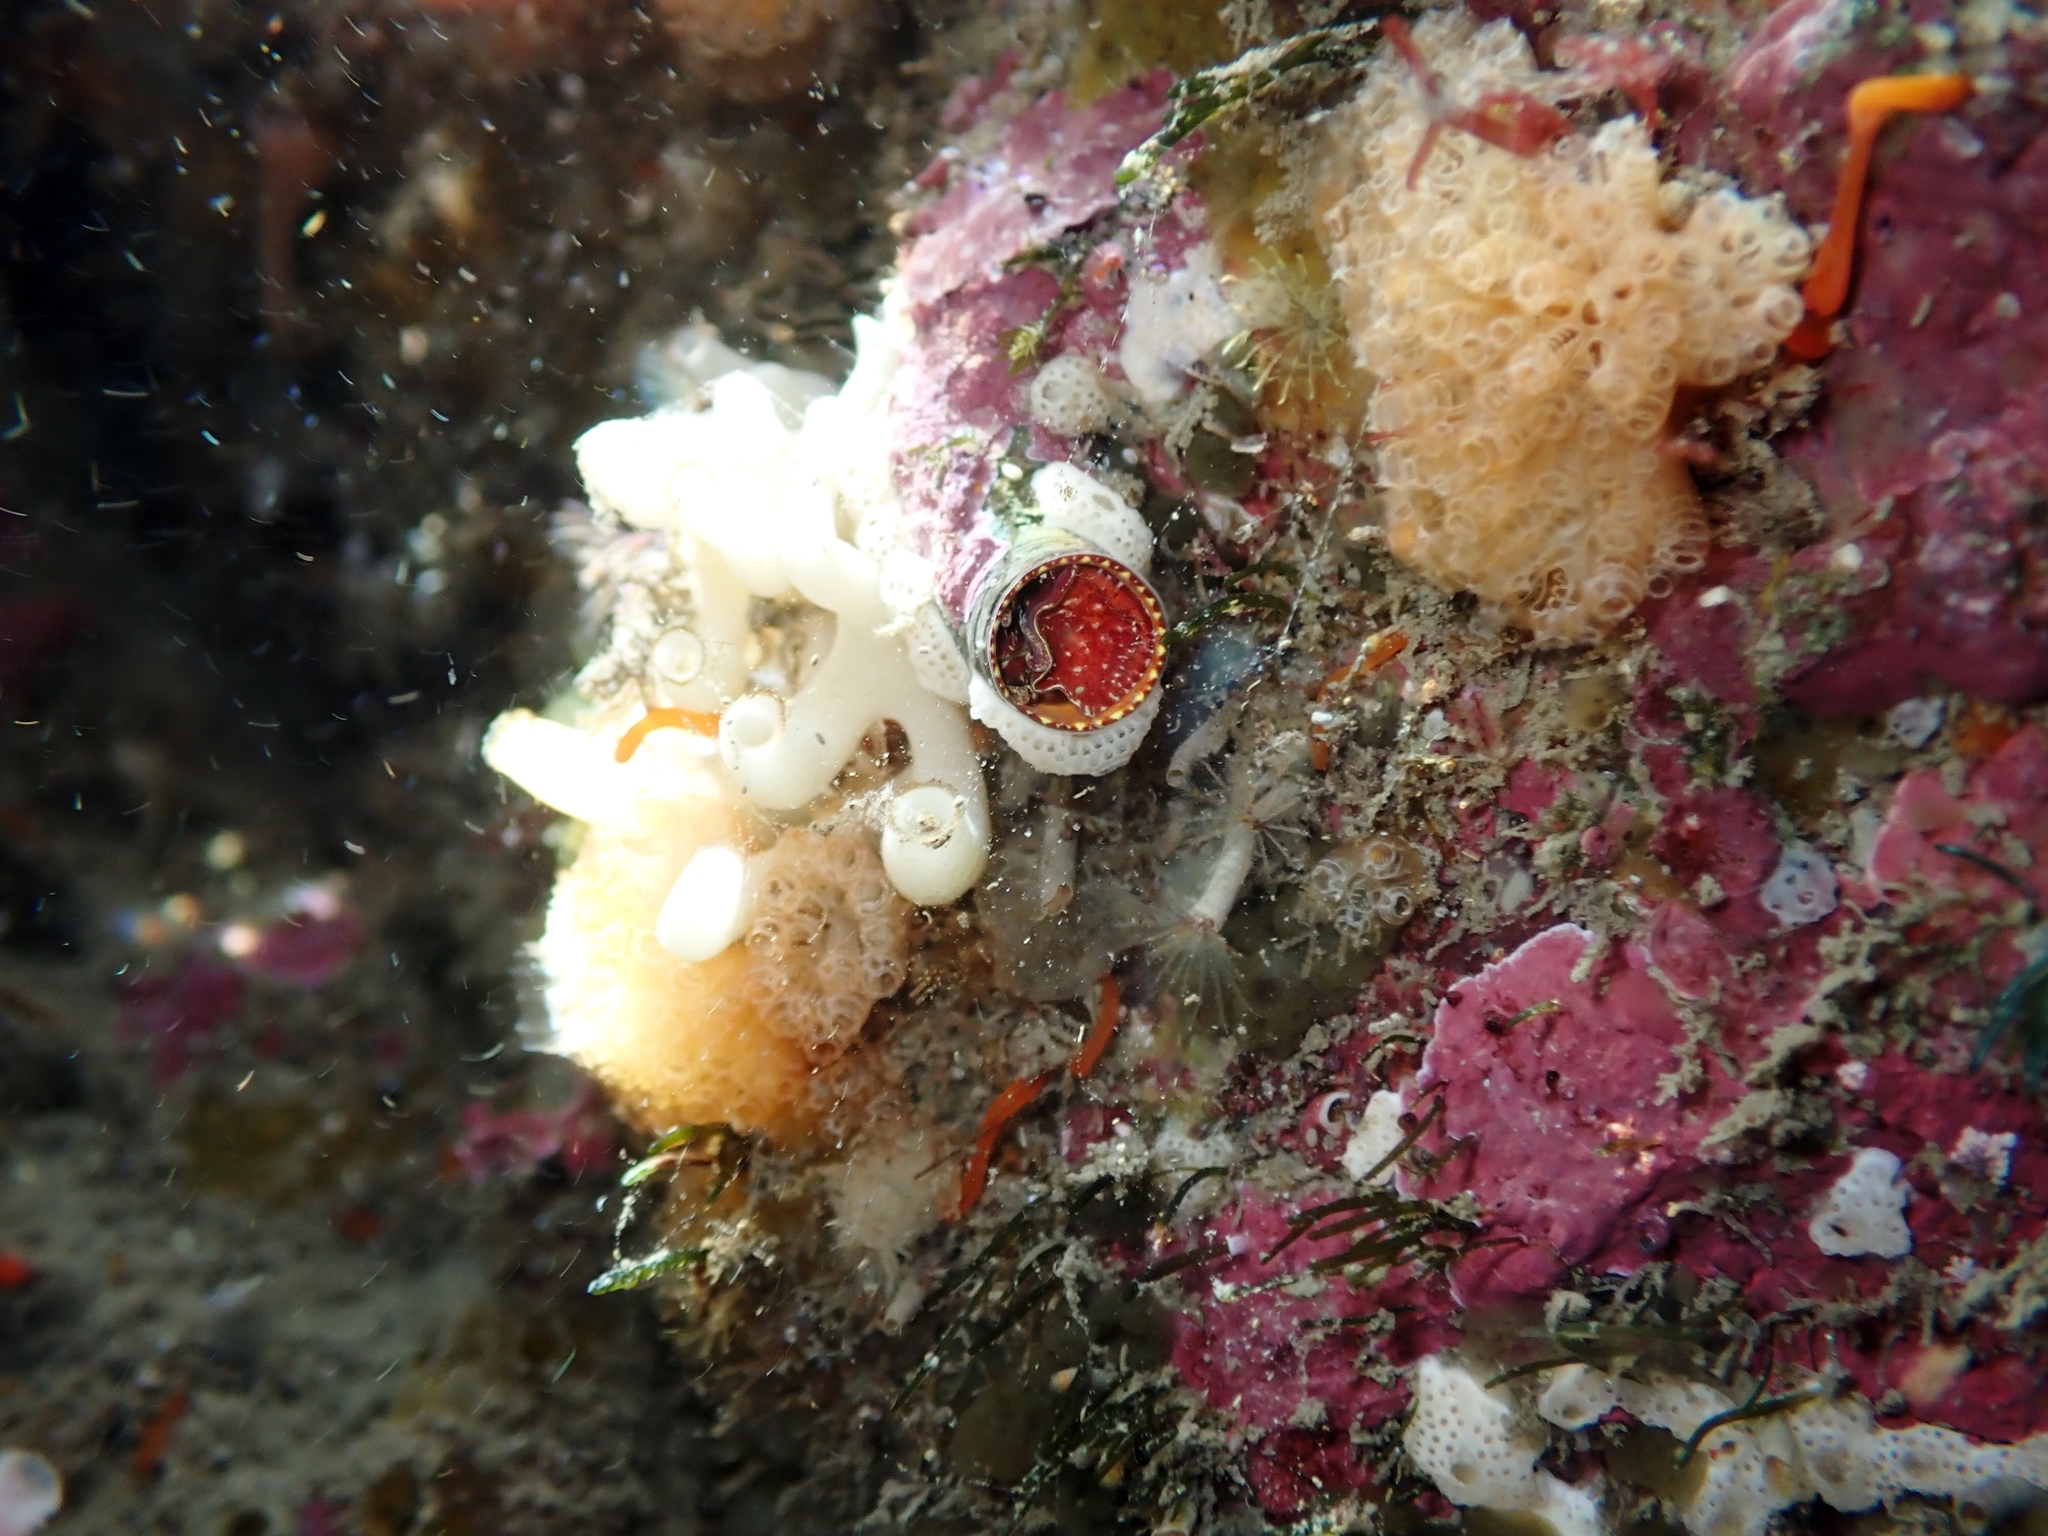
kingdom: Animalia
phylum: Mollusca
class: Gastropoda
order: Littorinimorpha
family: Vermetidae
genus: Thylacodes
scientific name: Thylacodes zelandicus
